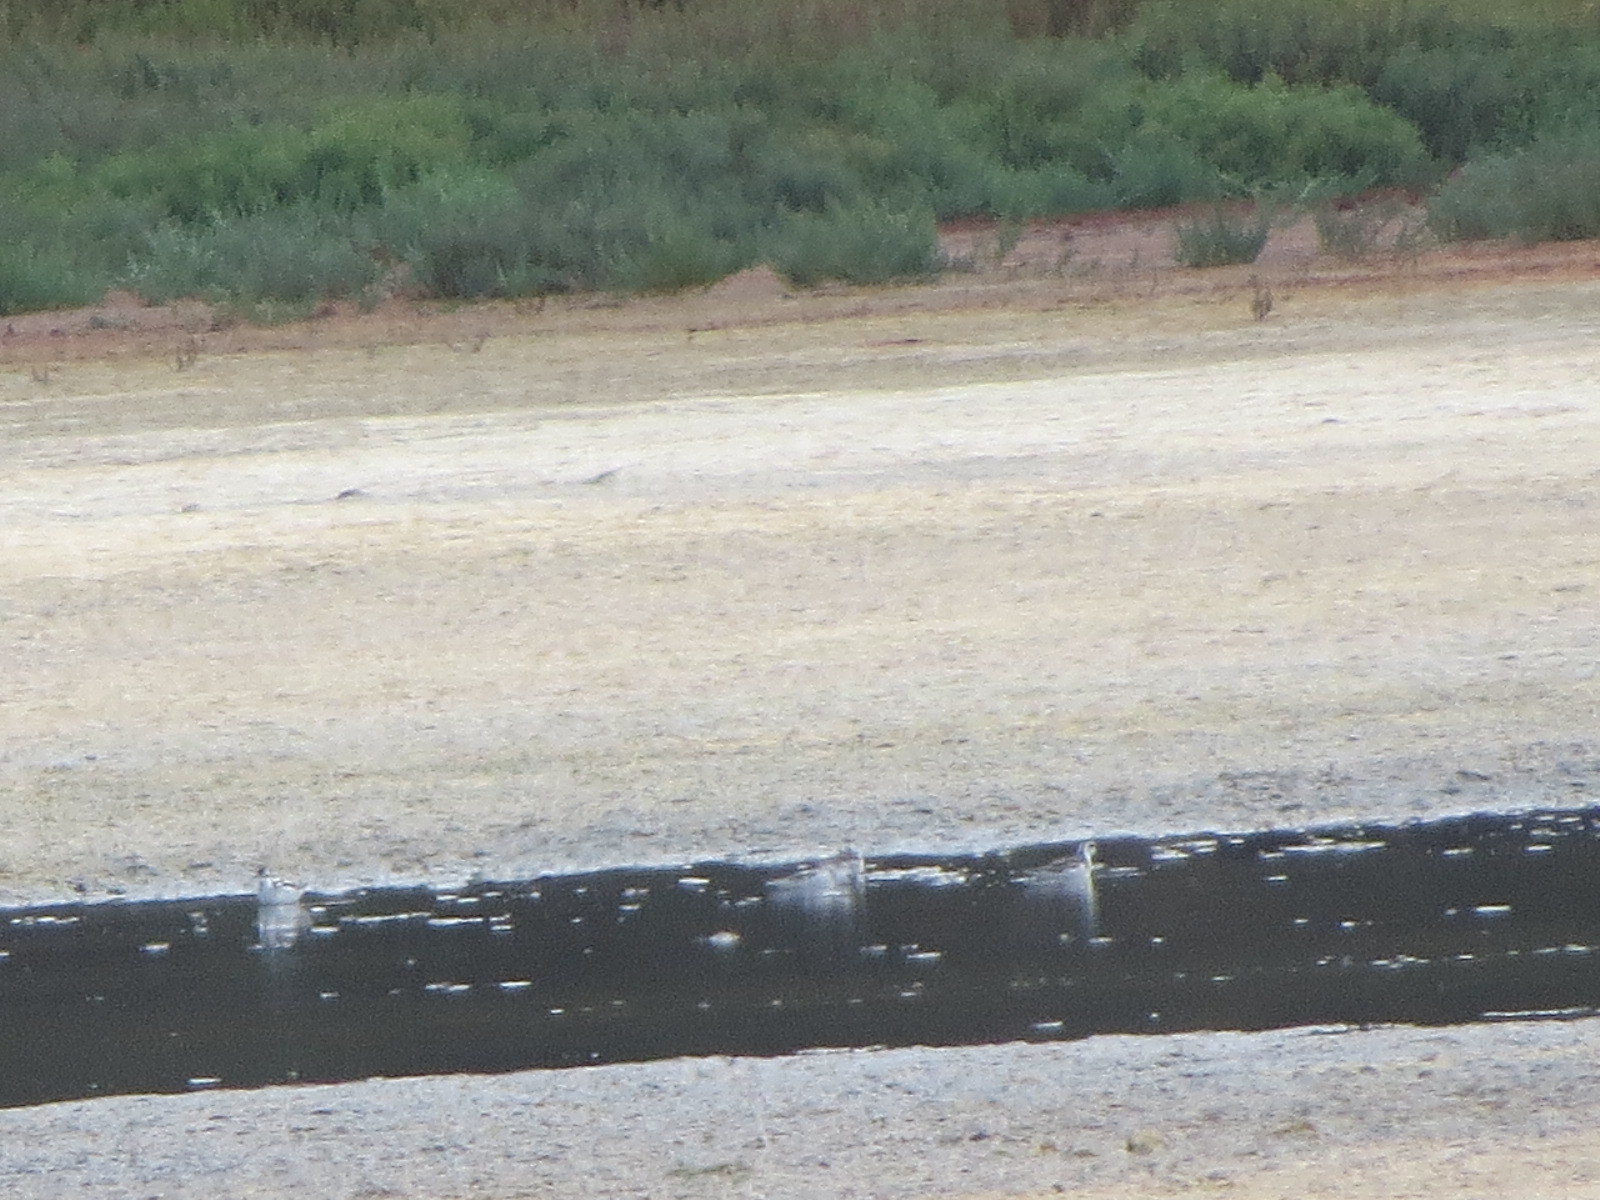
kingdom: Animalia
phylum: Chordata
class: Aves
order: Charadriiformes
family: Scolopacidae
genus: Phalaropus
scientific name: Phalaropus lobatus
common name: Red-necked phalarope
